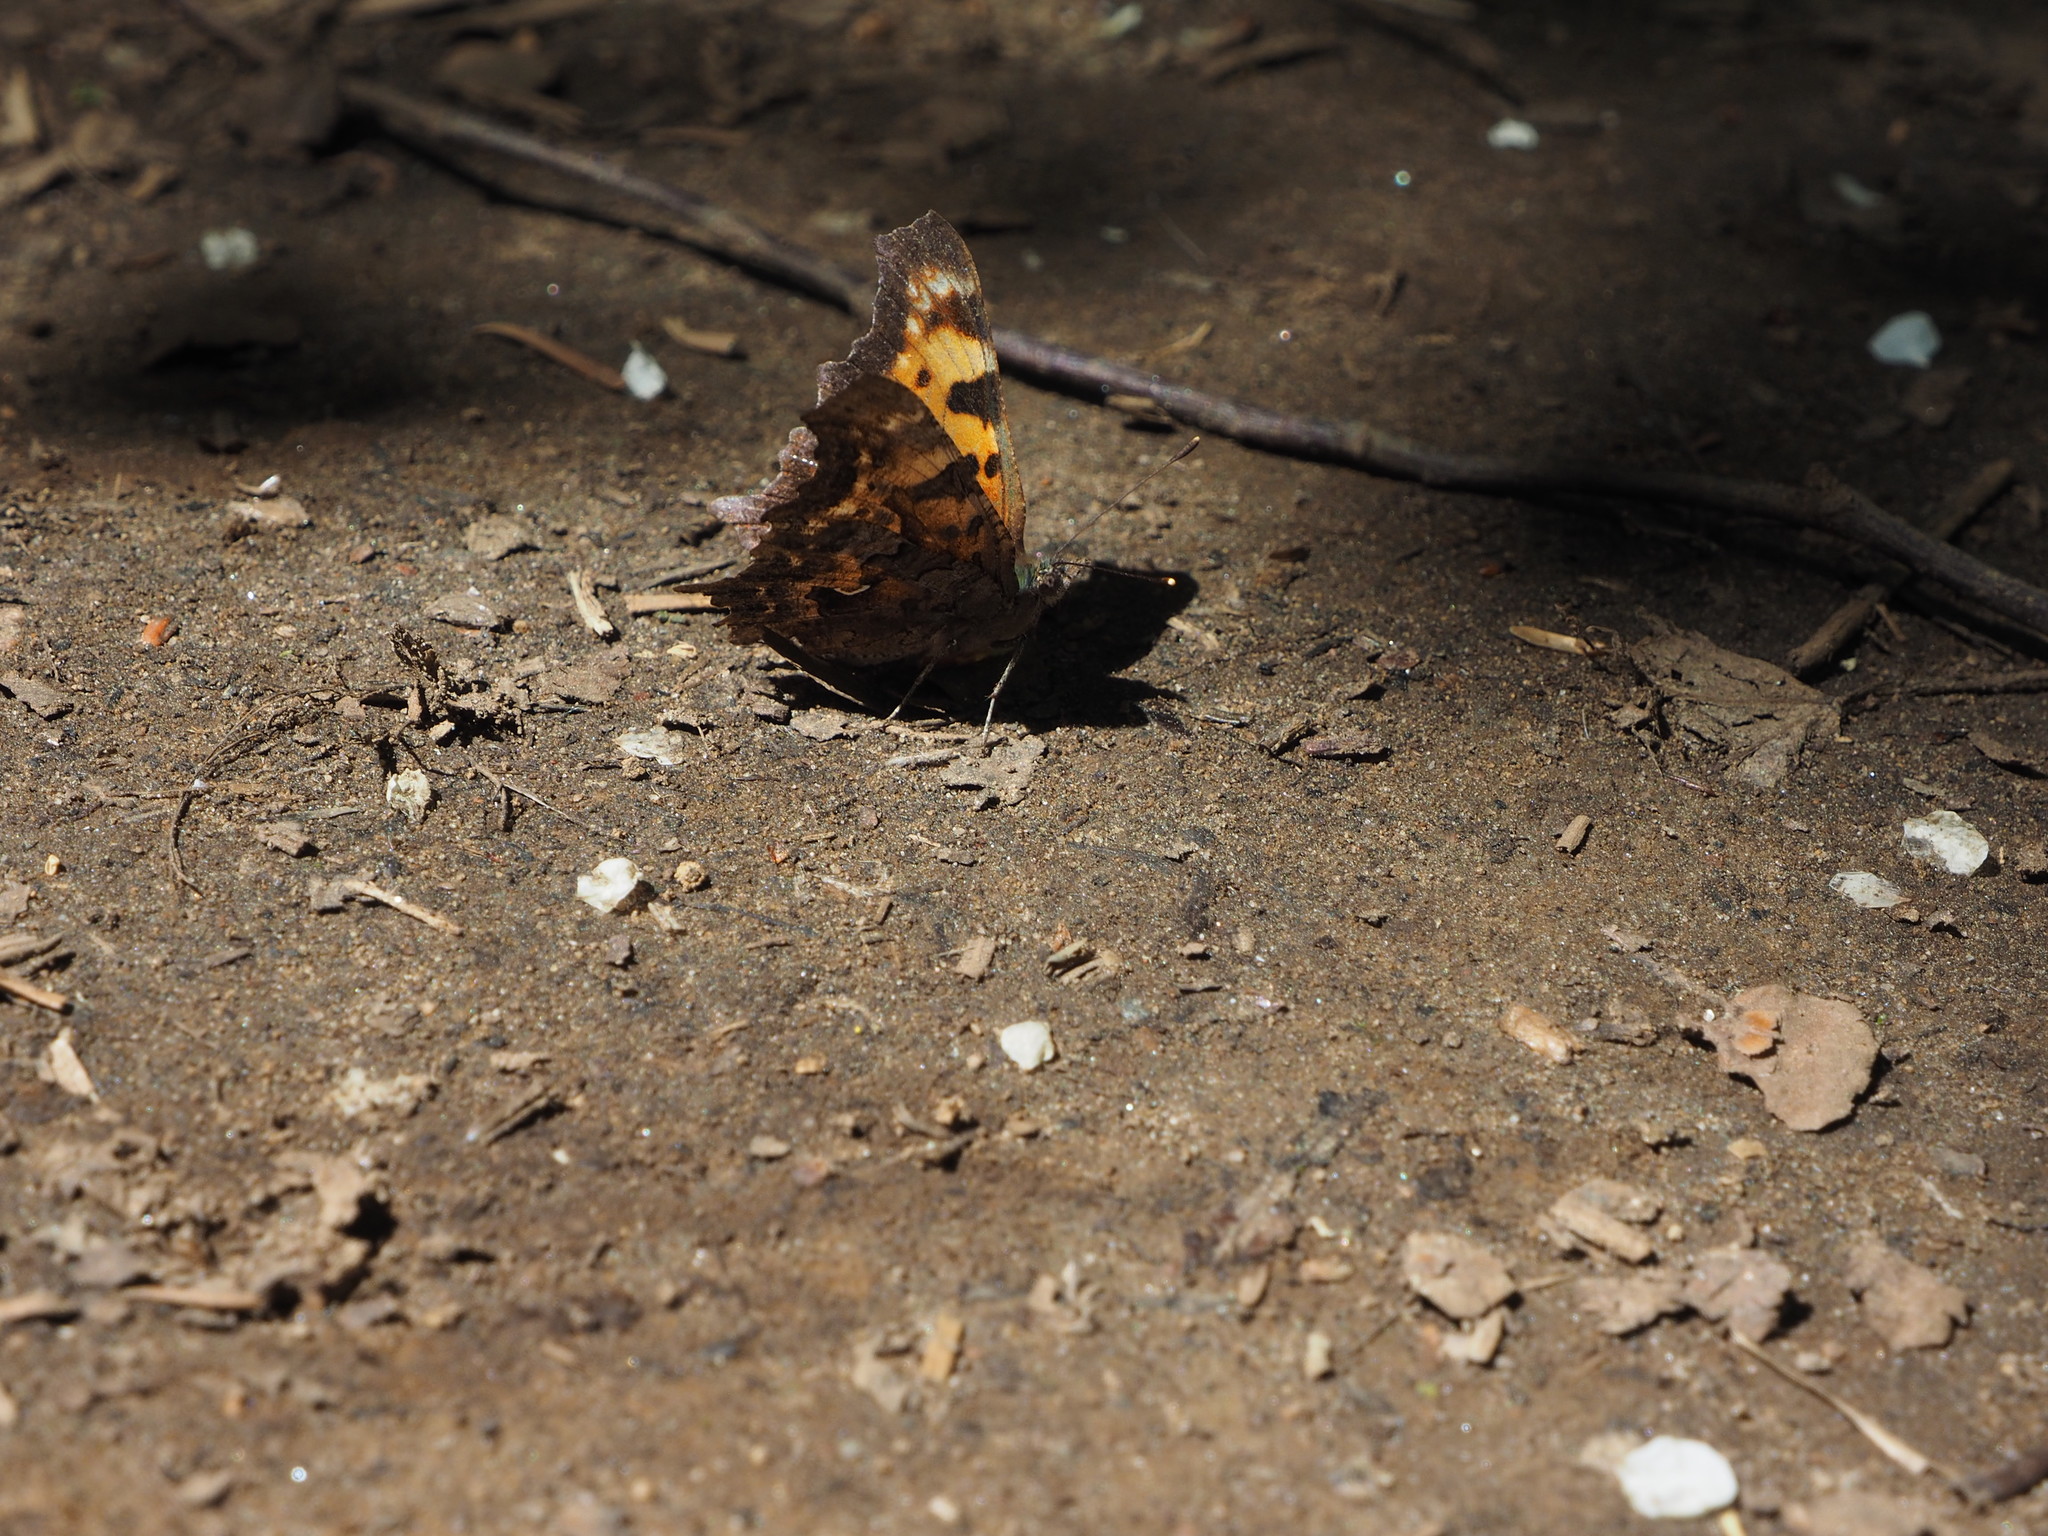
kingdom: Animalia
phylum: Arthropoda
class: Insecta
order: Lepidoptera
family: Nymphalidae
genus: Polygonia
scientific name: Polygonia faunus
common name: Green comma
